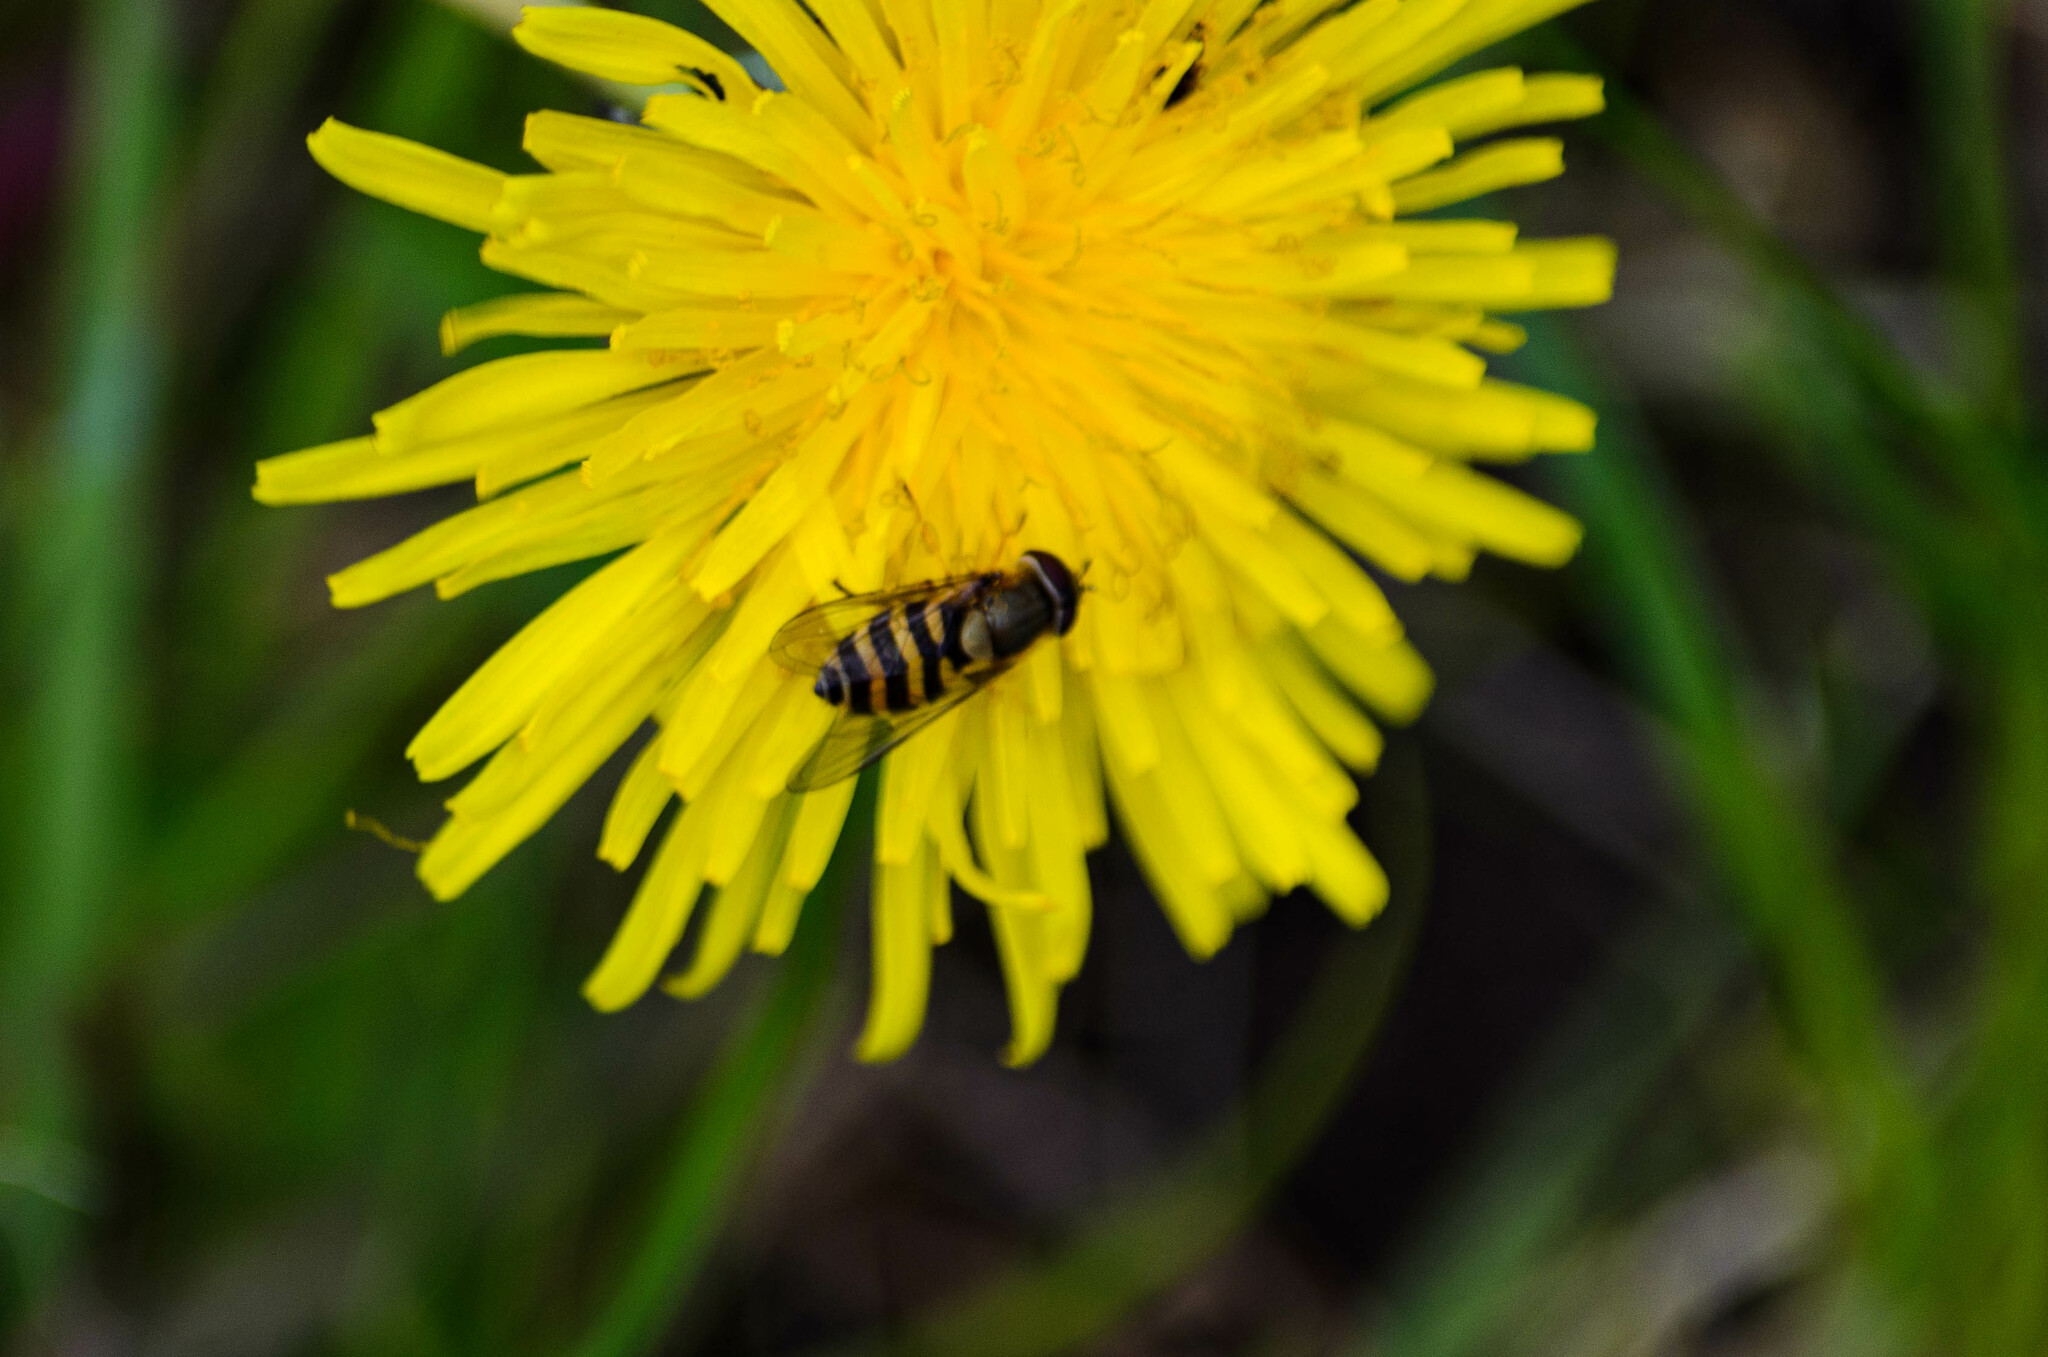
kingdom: Animalia
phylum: Arthropoda
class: Insecta
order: Diptera
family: Syrphidae
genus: Syrphus
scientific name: Syrphus
